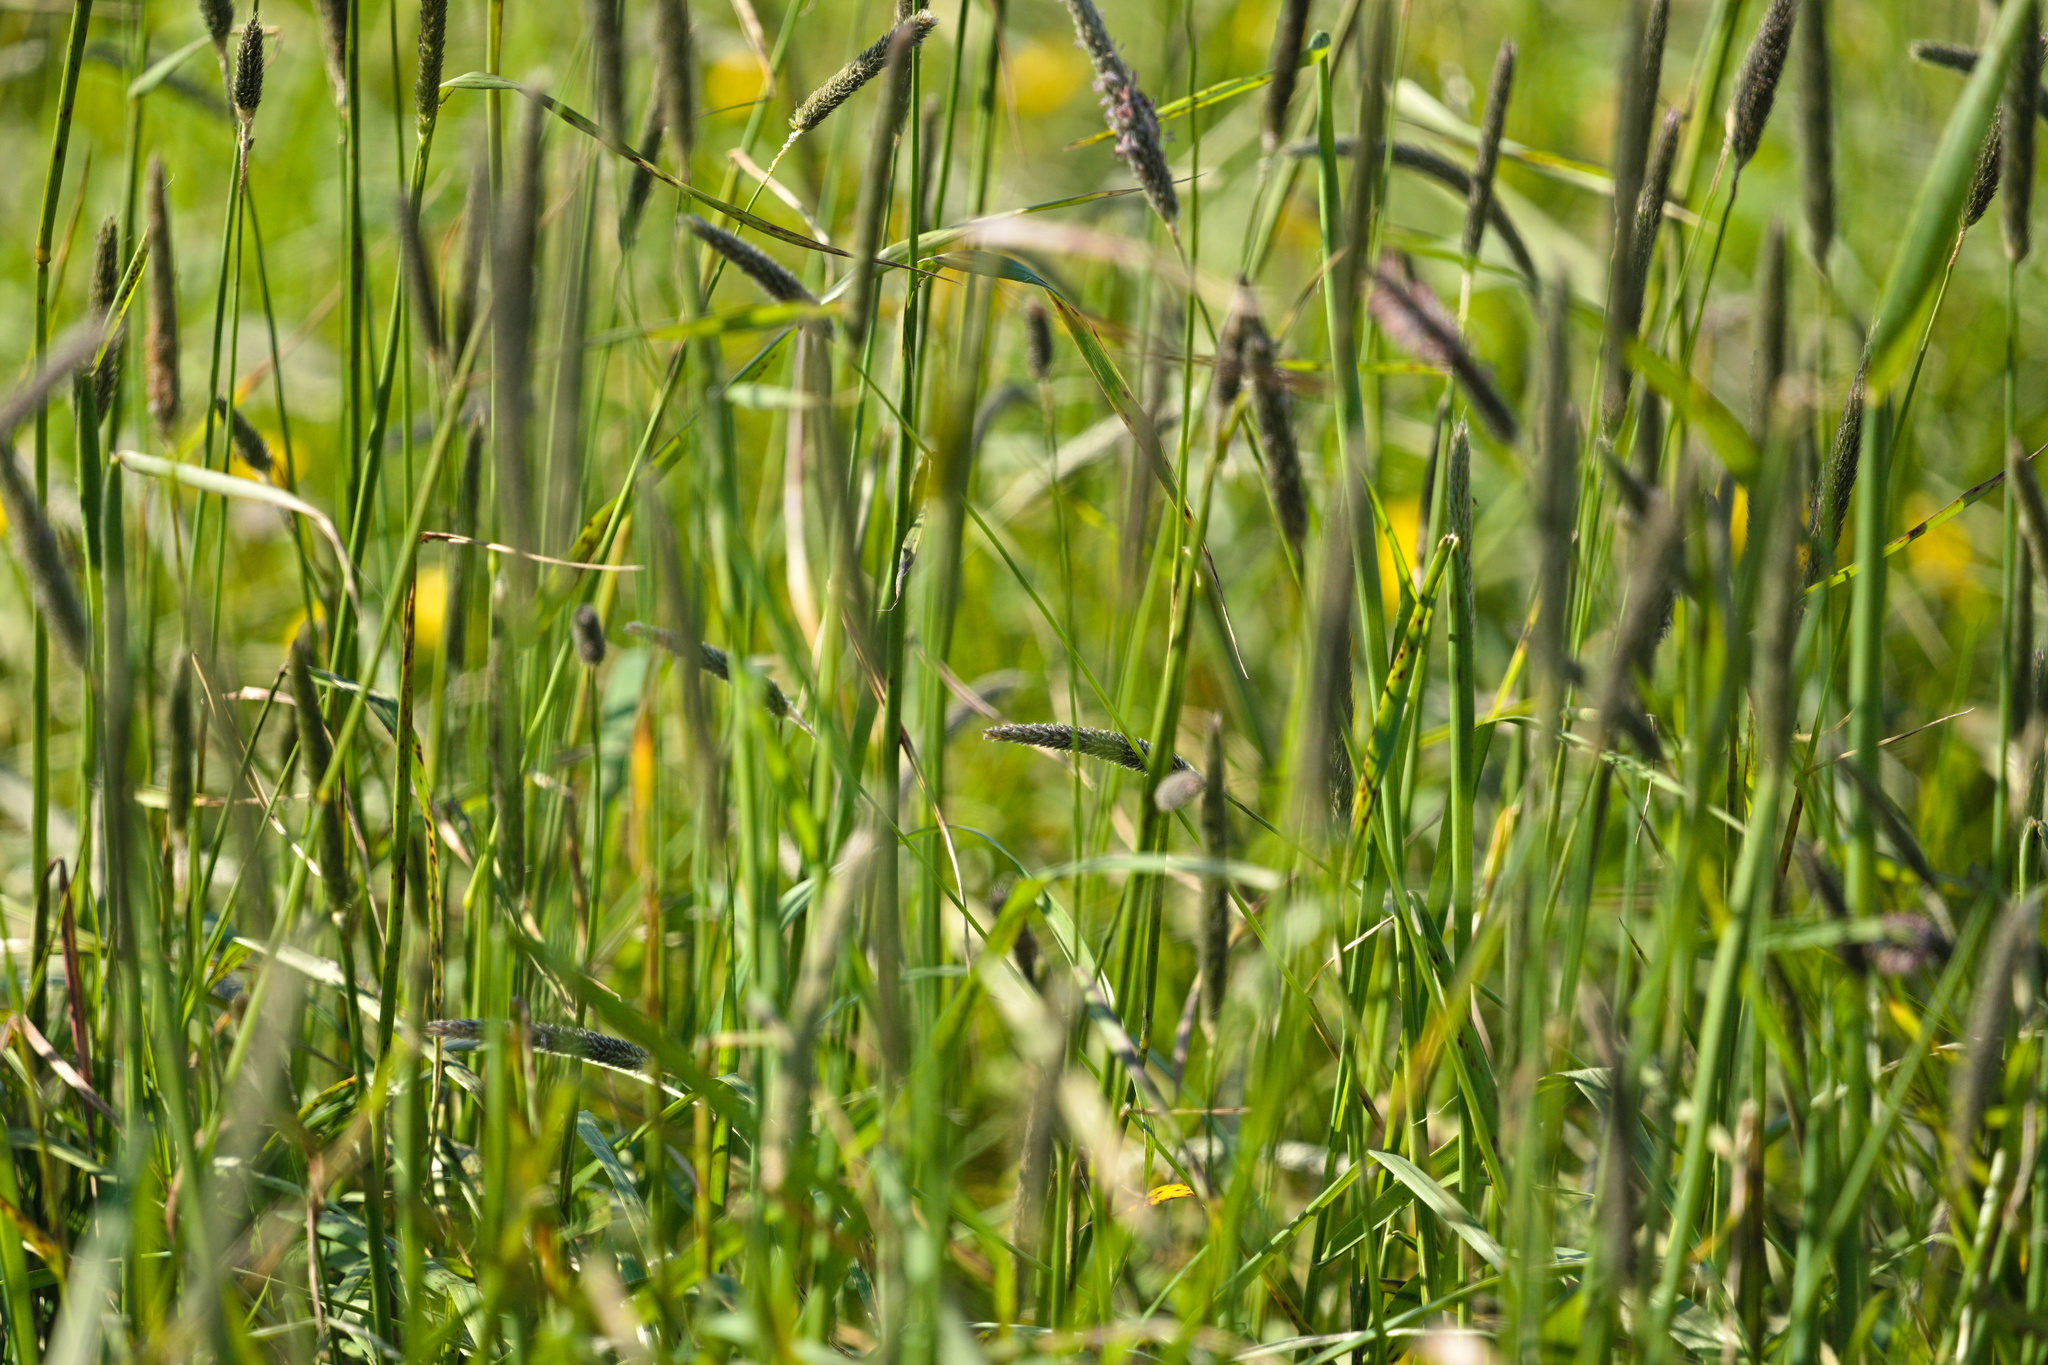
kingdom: Plantae
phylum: Tracheophyta
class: Liliopsida
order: Poales
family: Poaceae
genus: Alopecurus
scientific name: Alopecurus pratensis
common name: Meadow foxtail
